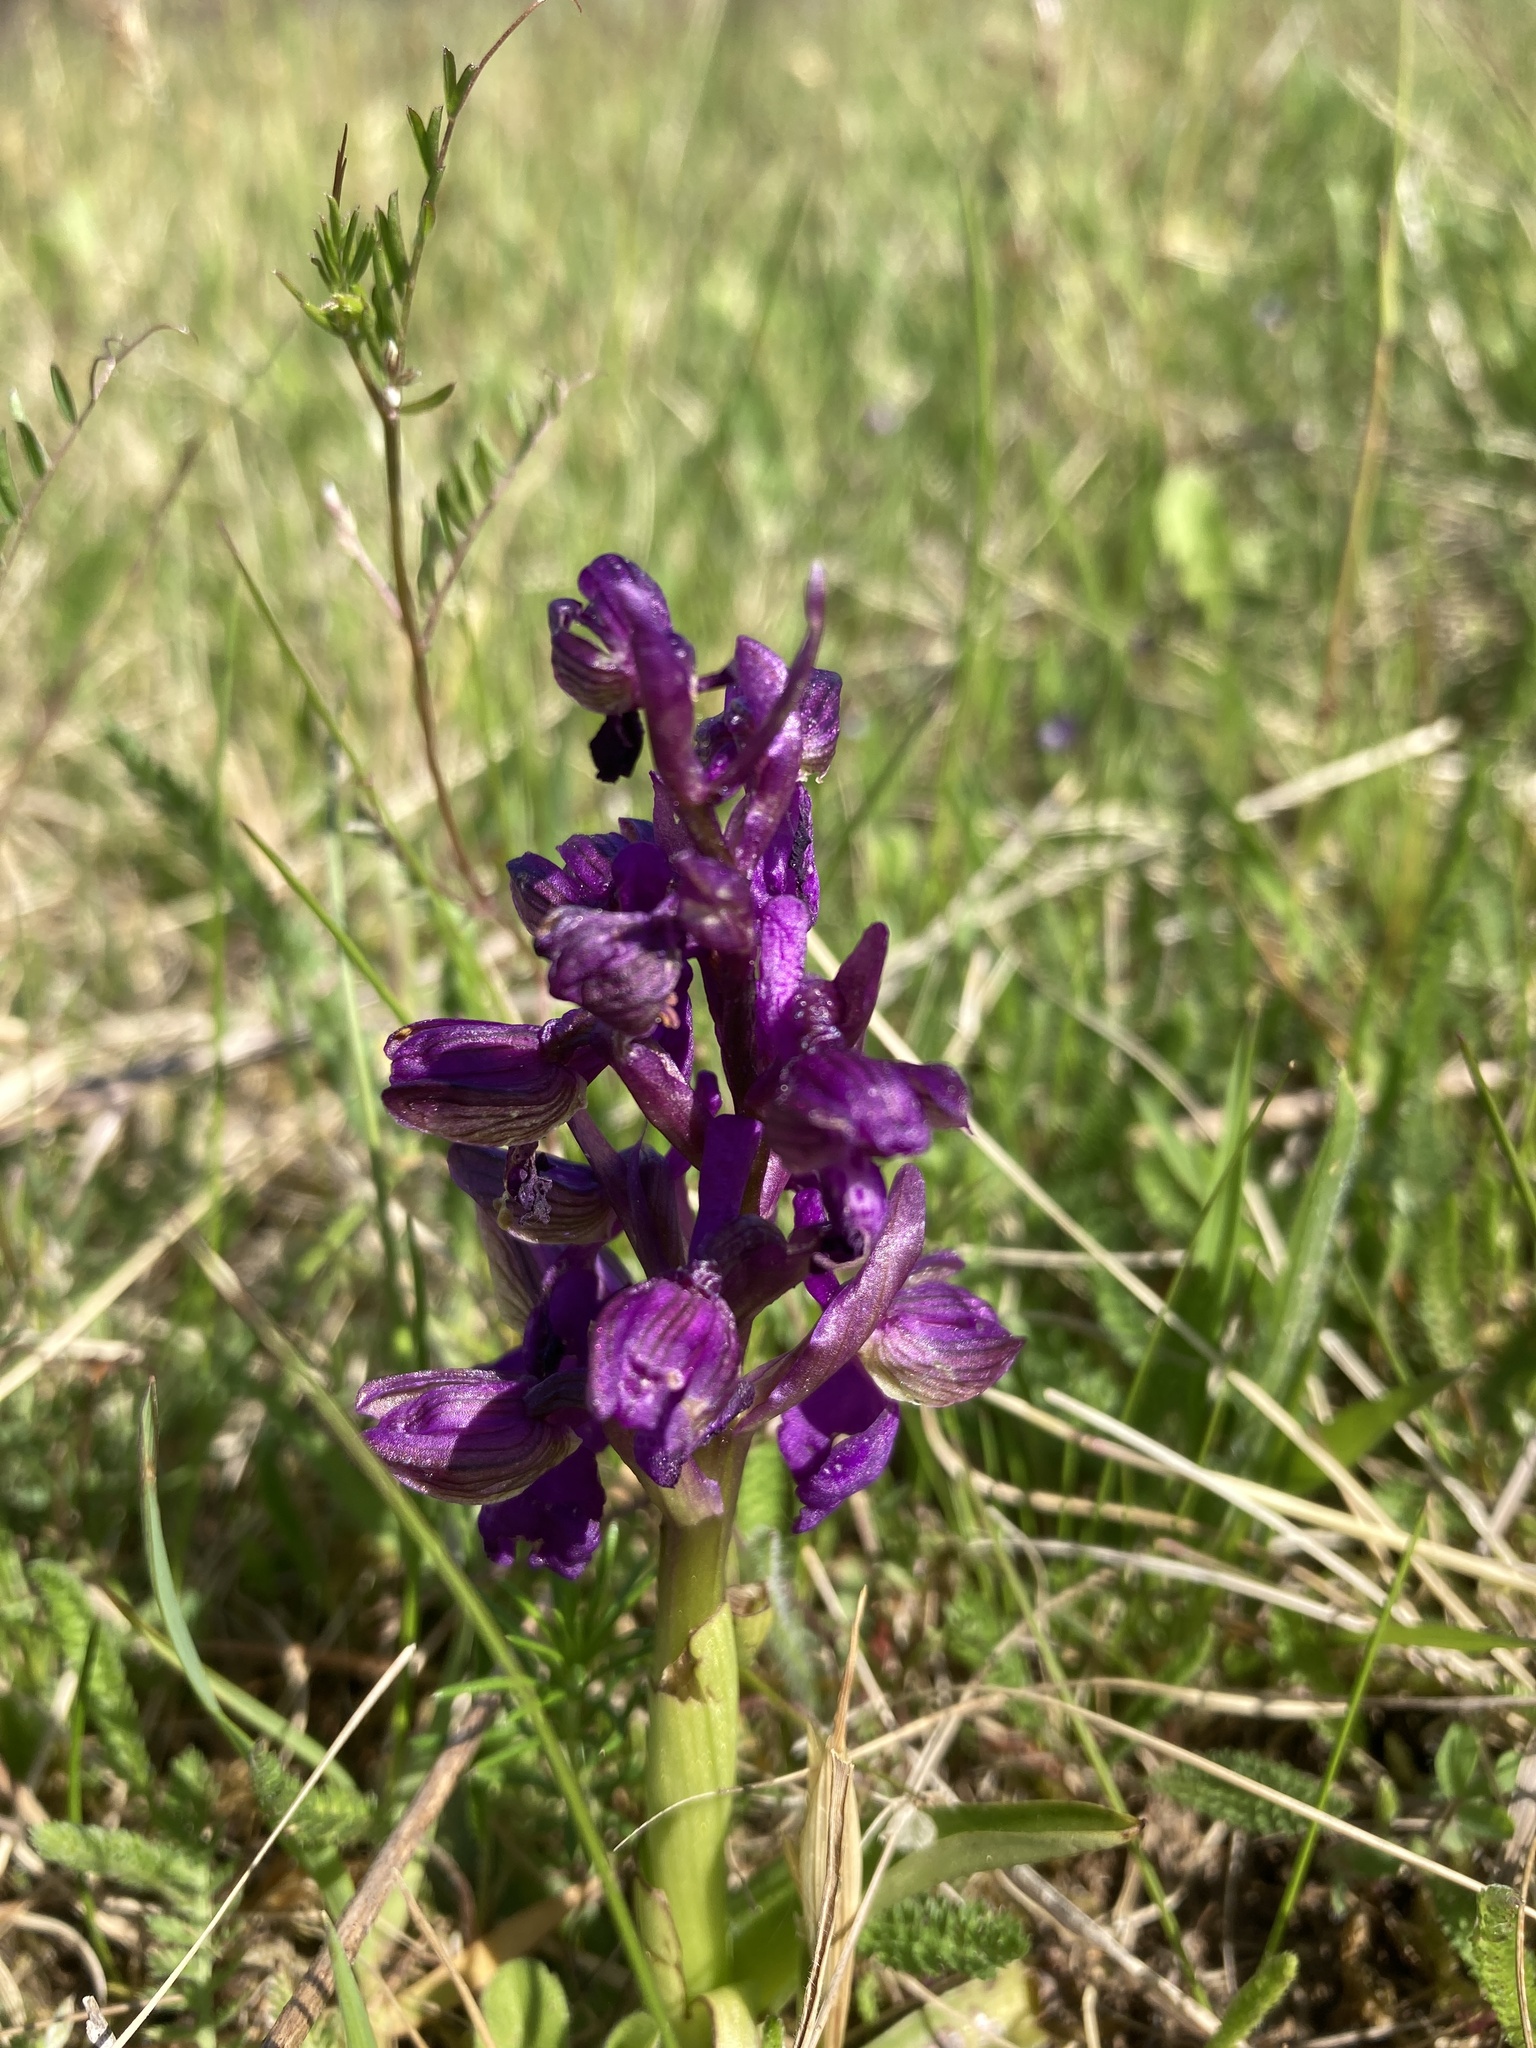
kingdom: Plantae
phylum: Tracheophyta
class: Liliopsida
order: Asparagales
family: Orchidaceae
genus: Anacamptis
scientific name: Anacamptis morio
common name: Green-winged orchid
